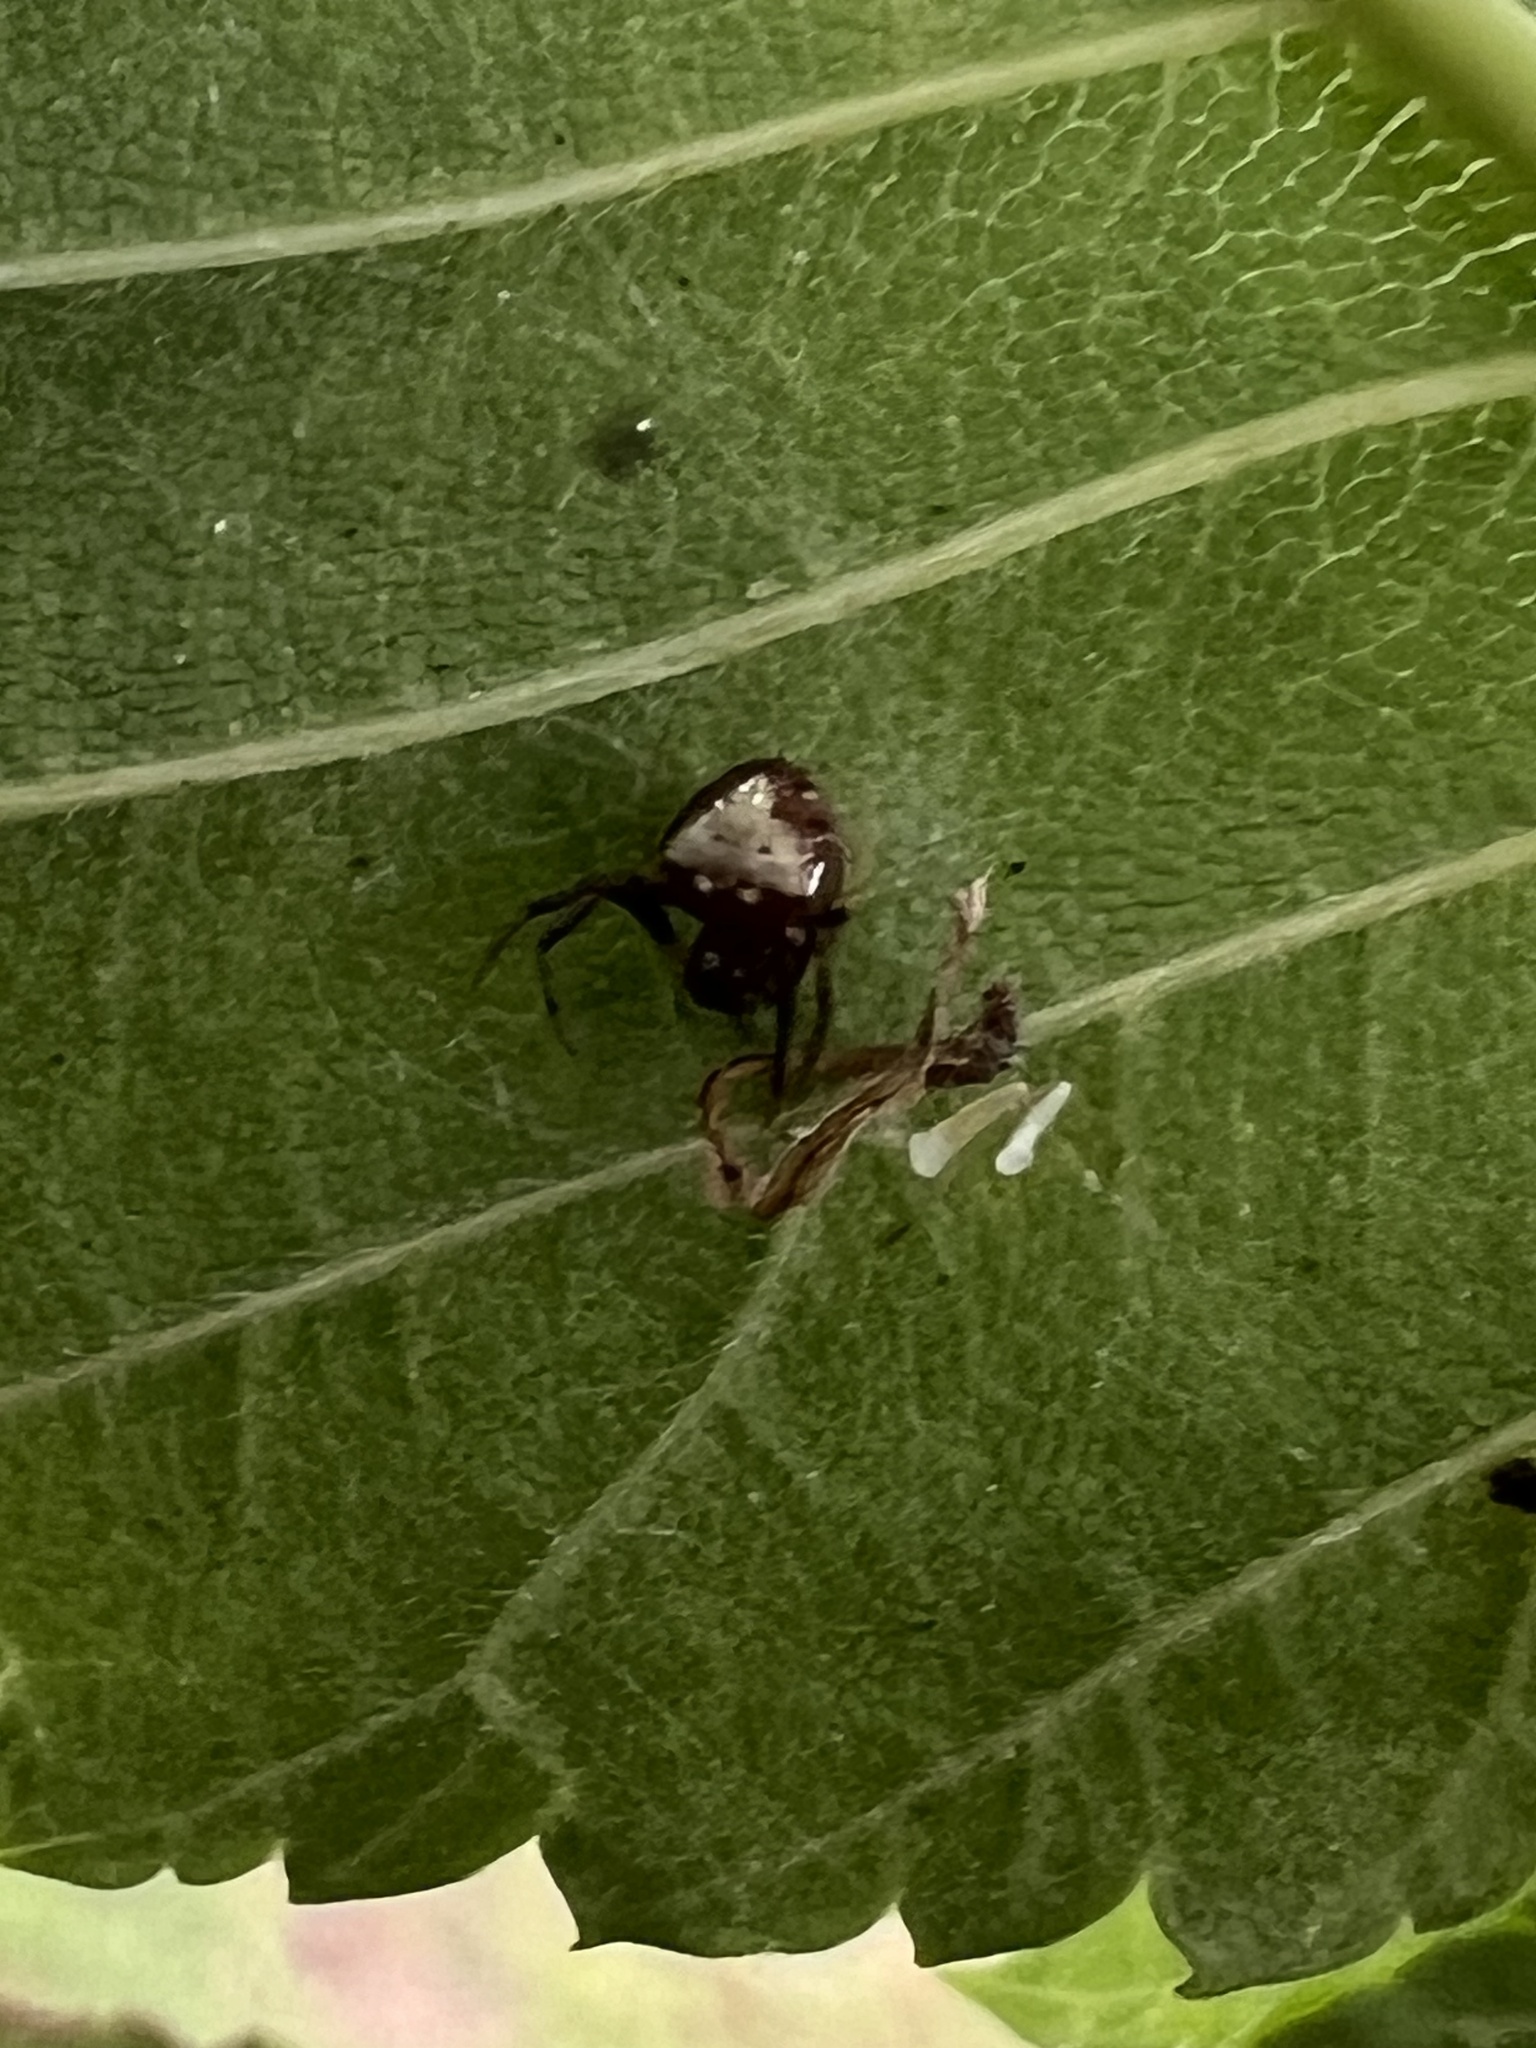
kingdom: Animalia
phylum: Arthropoda
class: Arachnida
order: Araneae
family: Araneidae
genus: Verrucosa
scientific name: Verrucosa arenata
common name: Orb weavers
